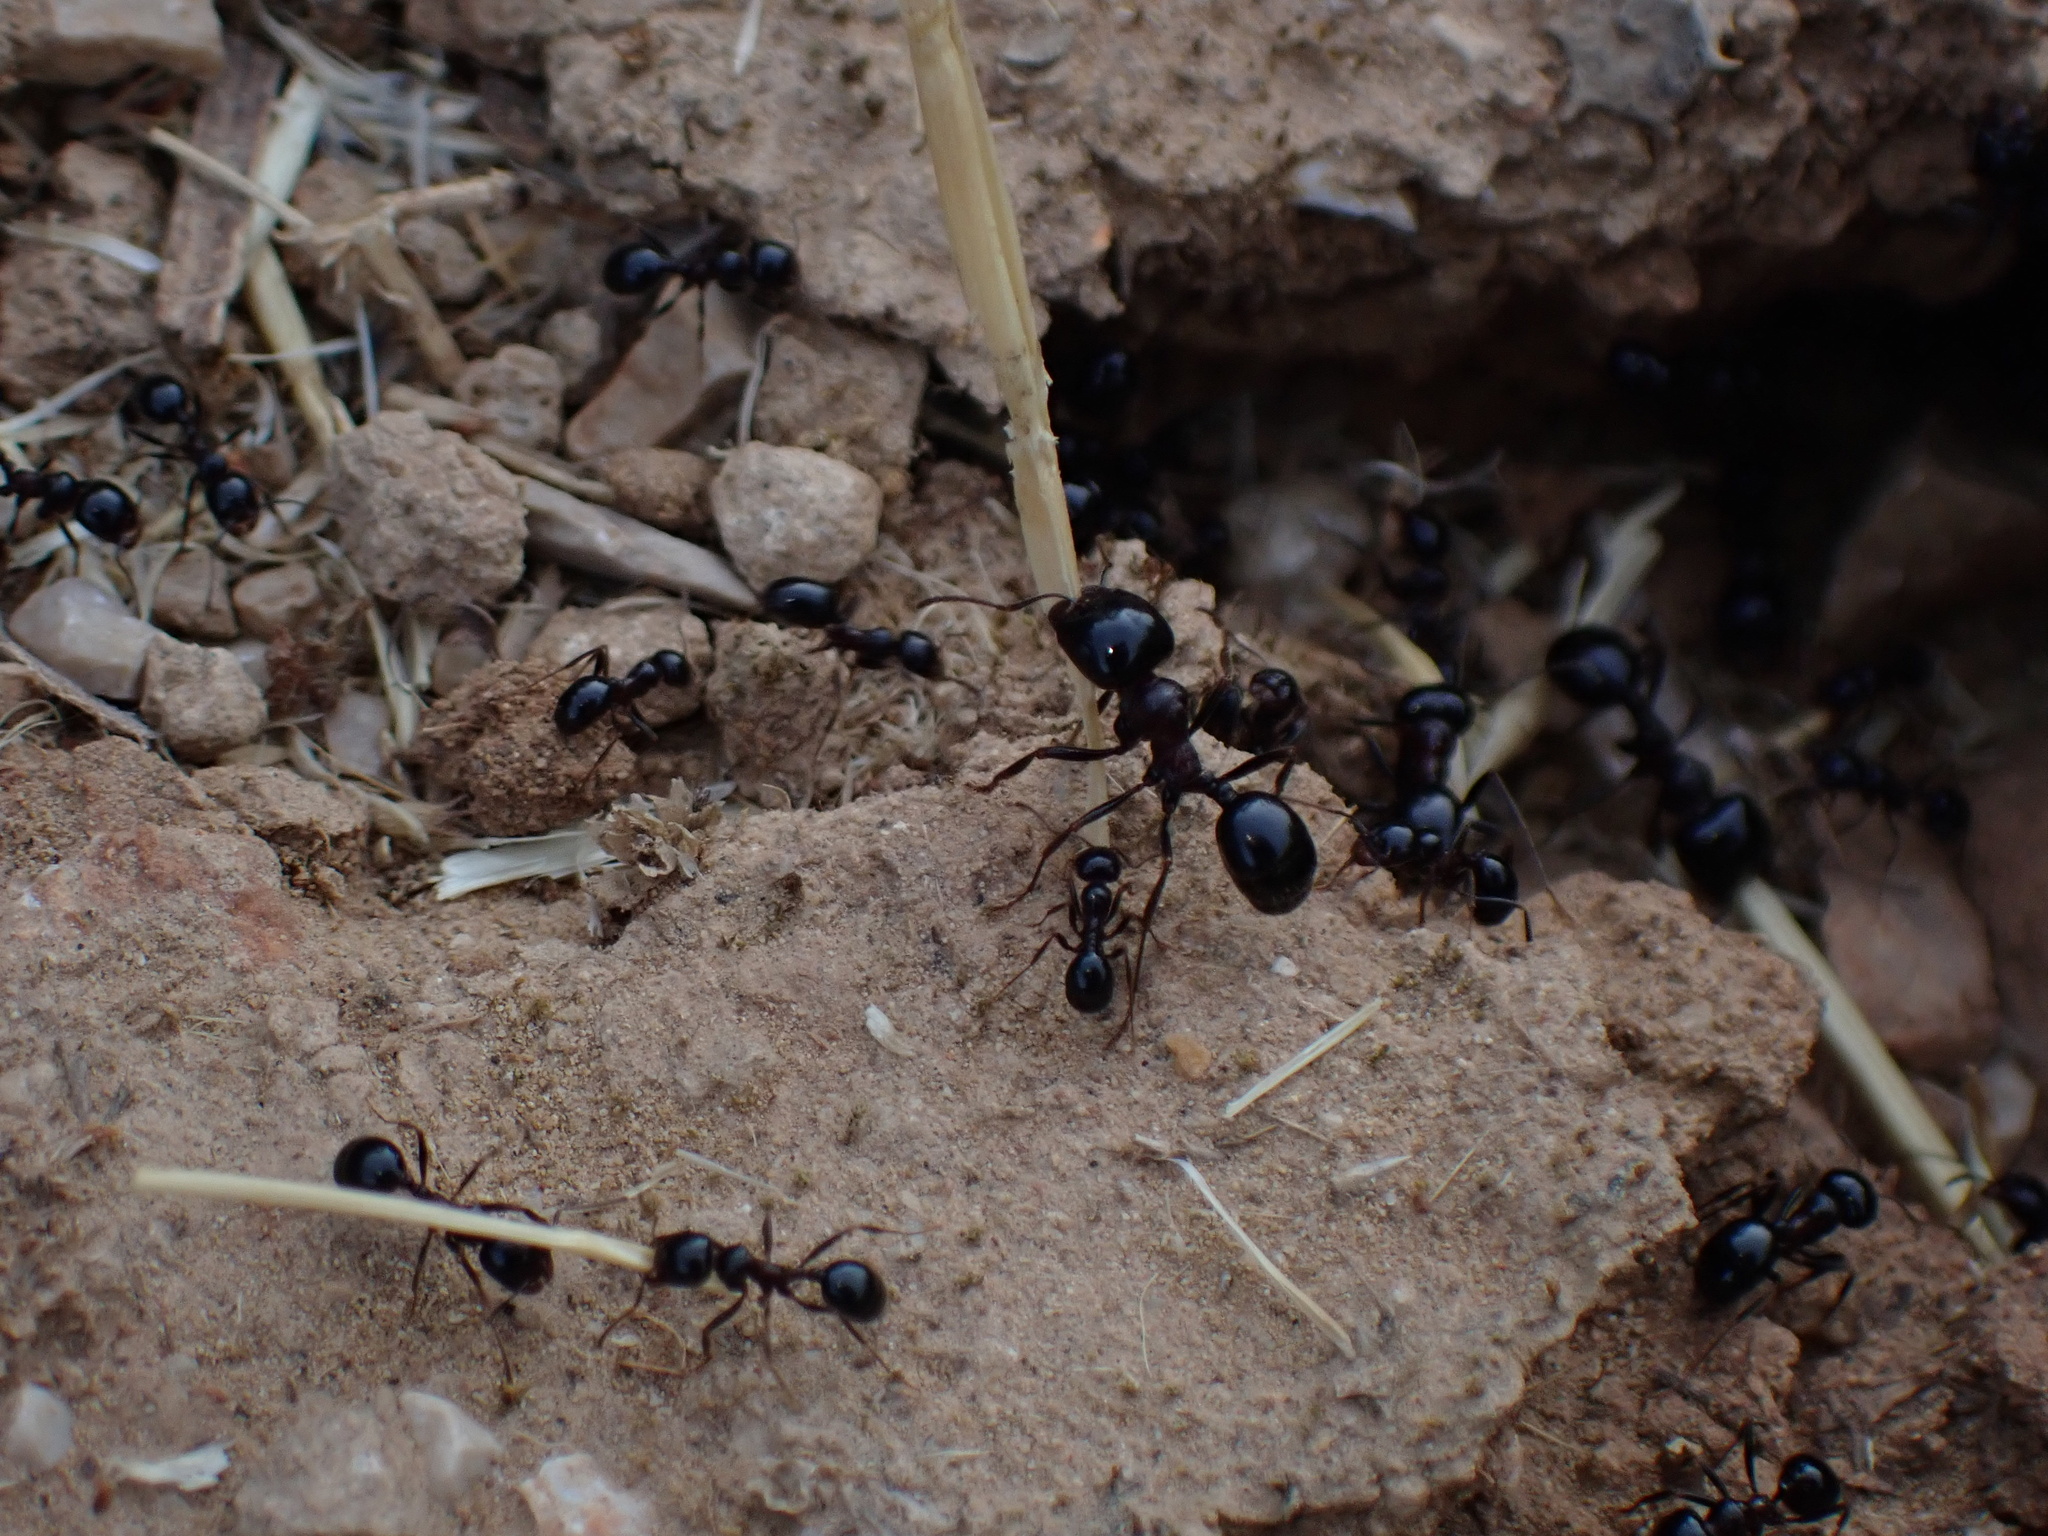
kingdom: Animalia
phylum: Arthropoda
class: Insecta
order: Hymenoptera
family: Formicidae
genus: Messor
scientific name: Messor wasmanni
